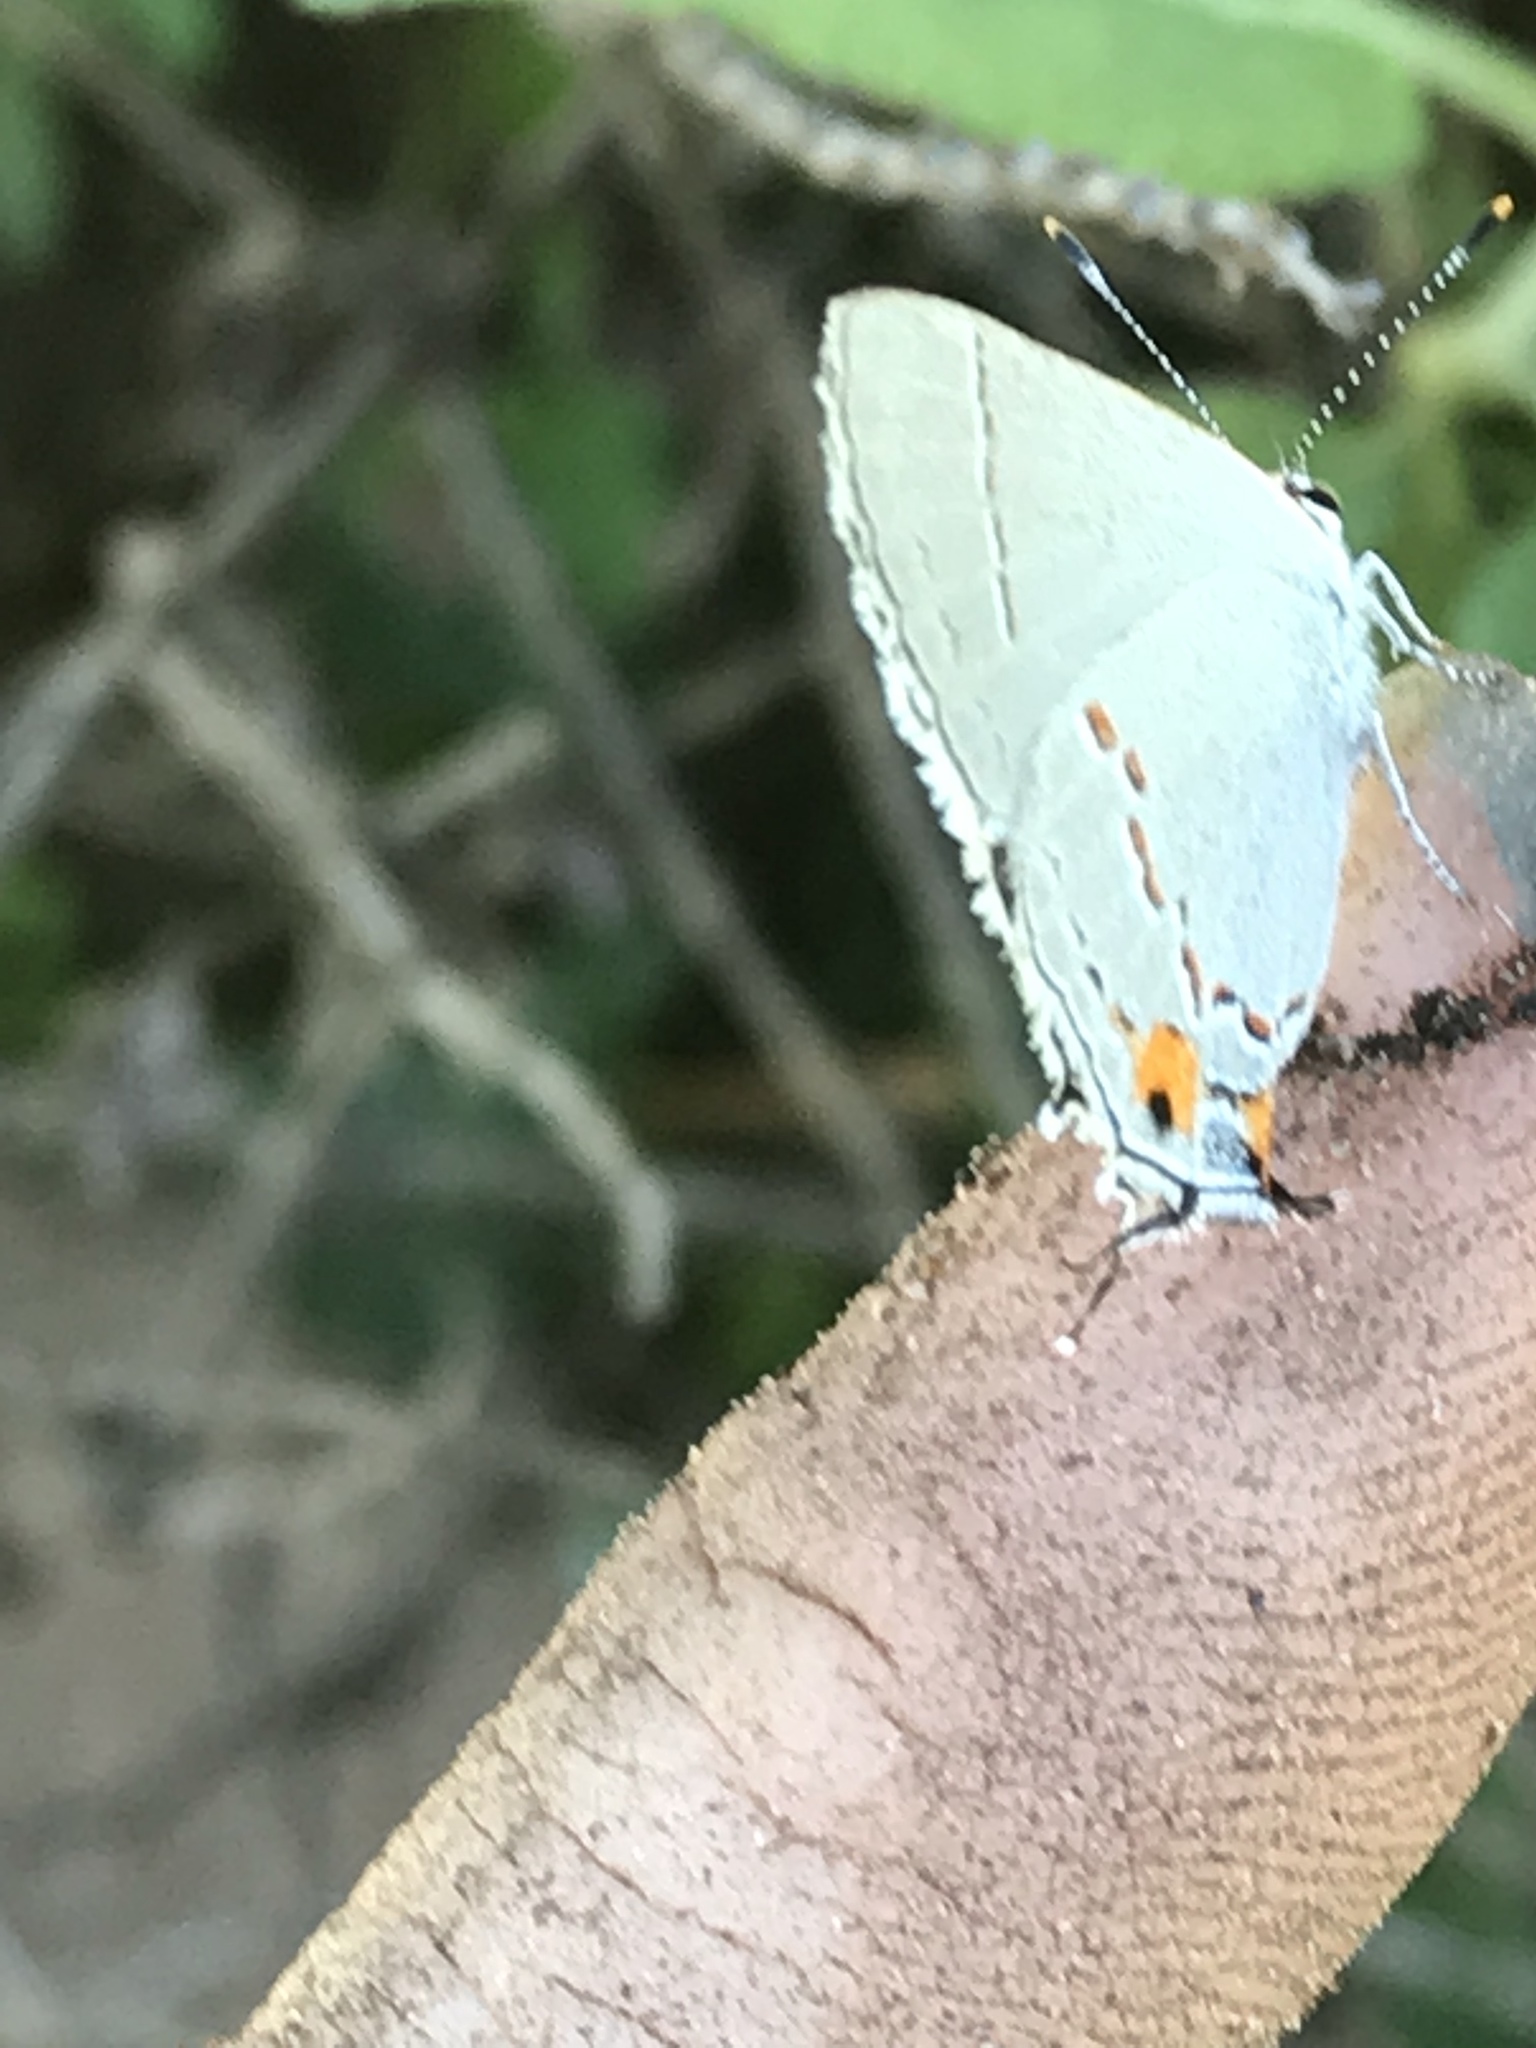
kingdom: Animalia
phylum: Arthropoda
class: Insecta
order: Lepidoptera
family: Lycaenidae
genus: Strymon
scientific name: Strymon melinus
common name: Gray hairstreak
